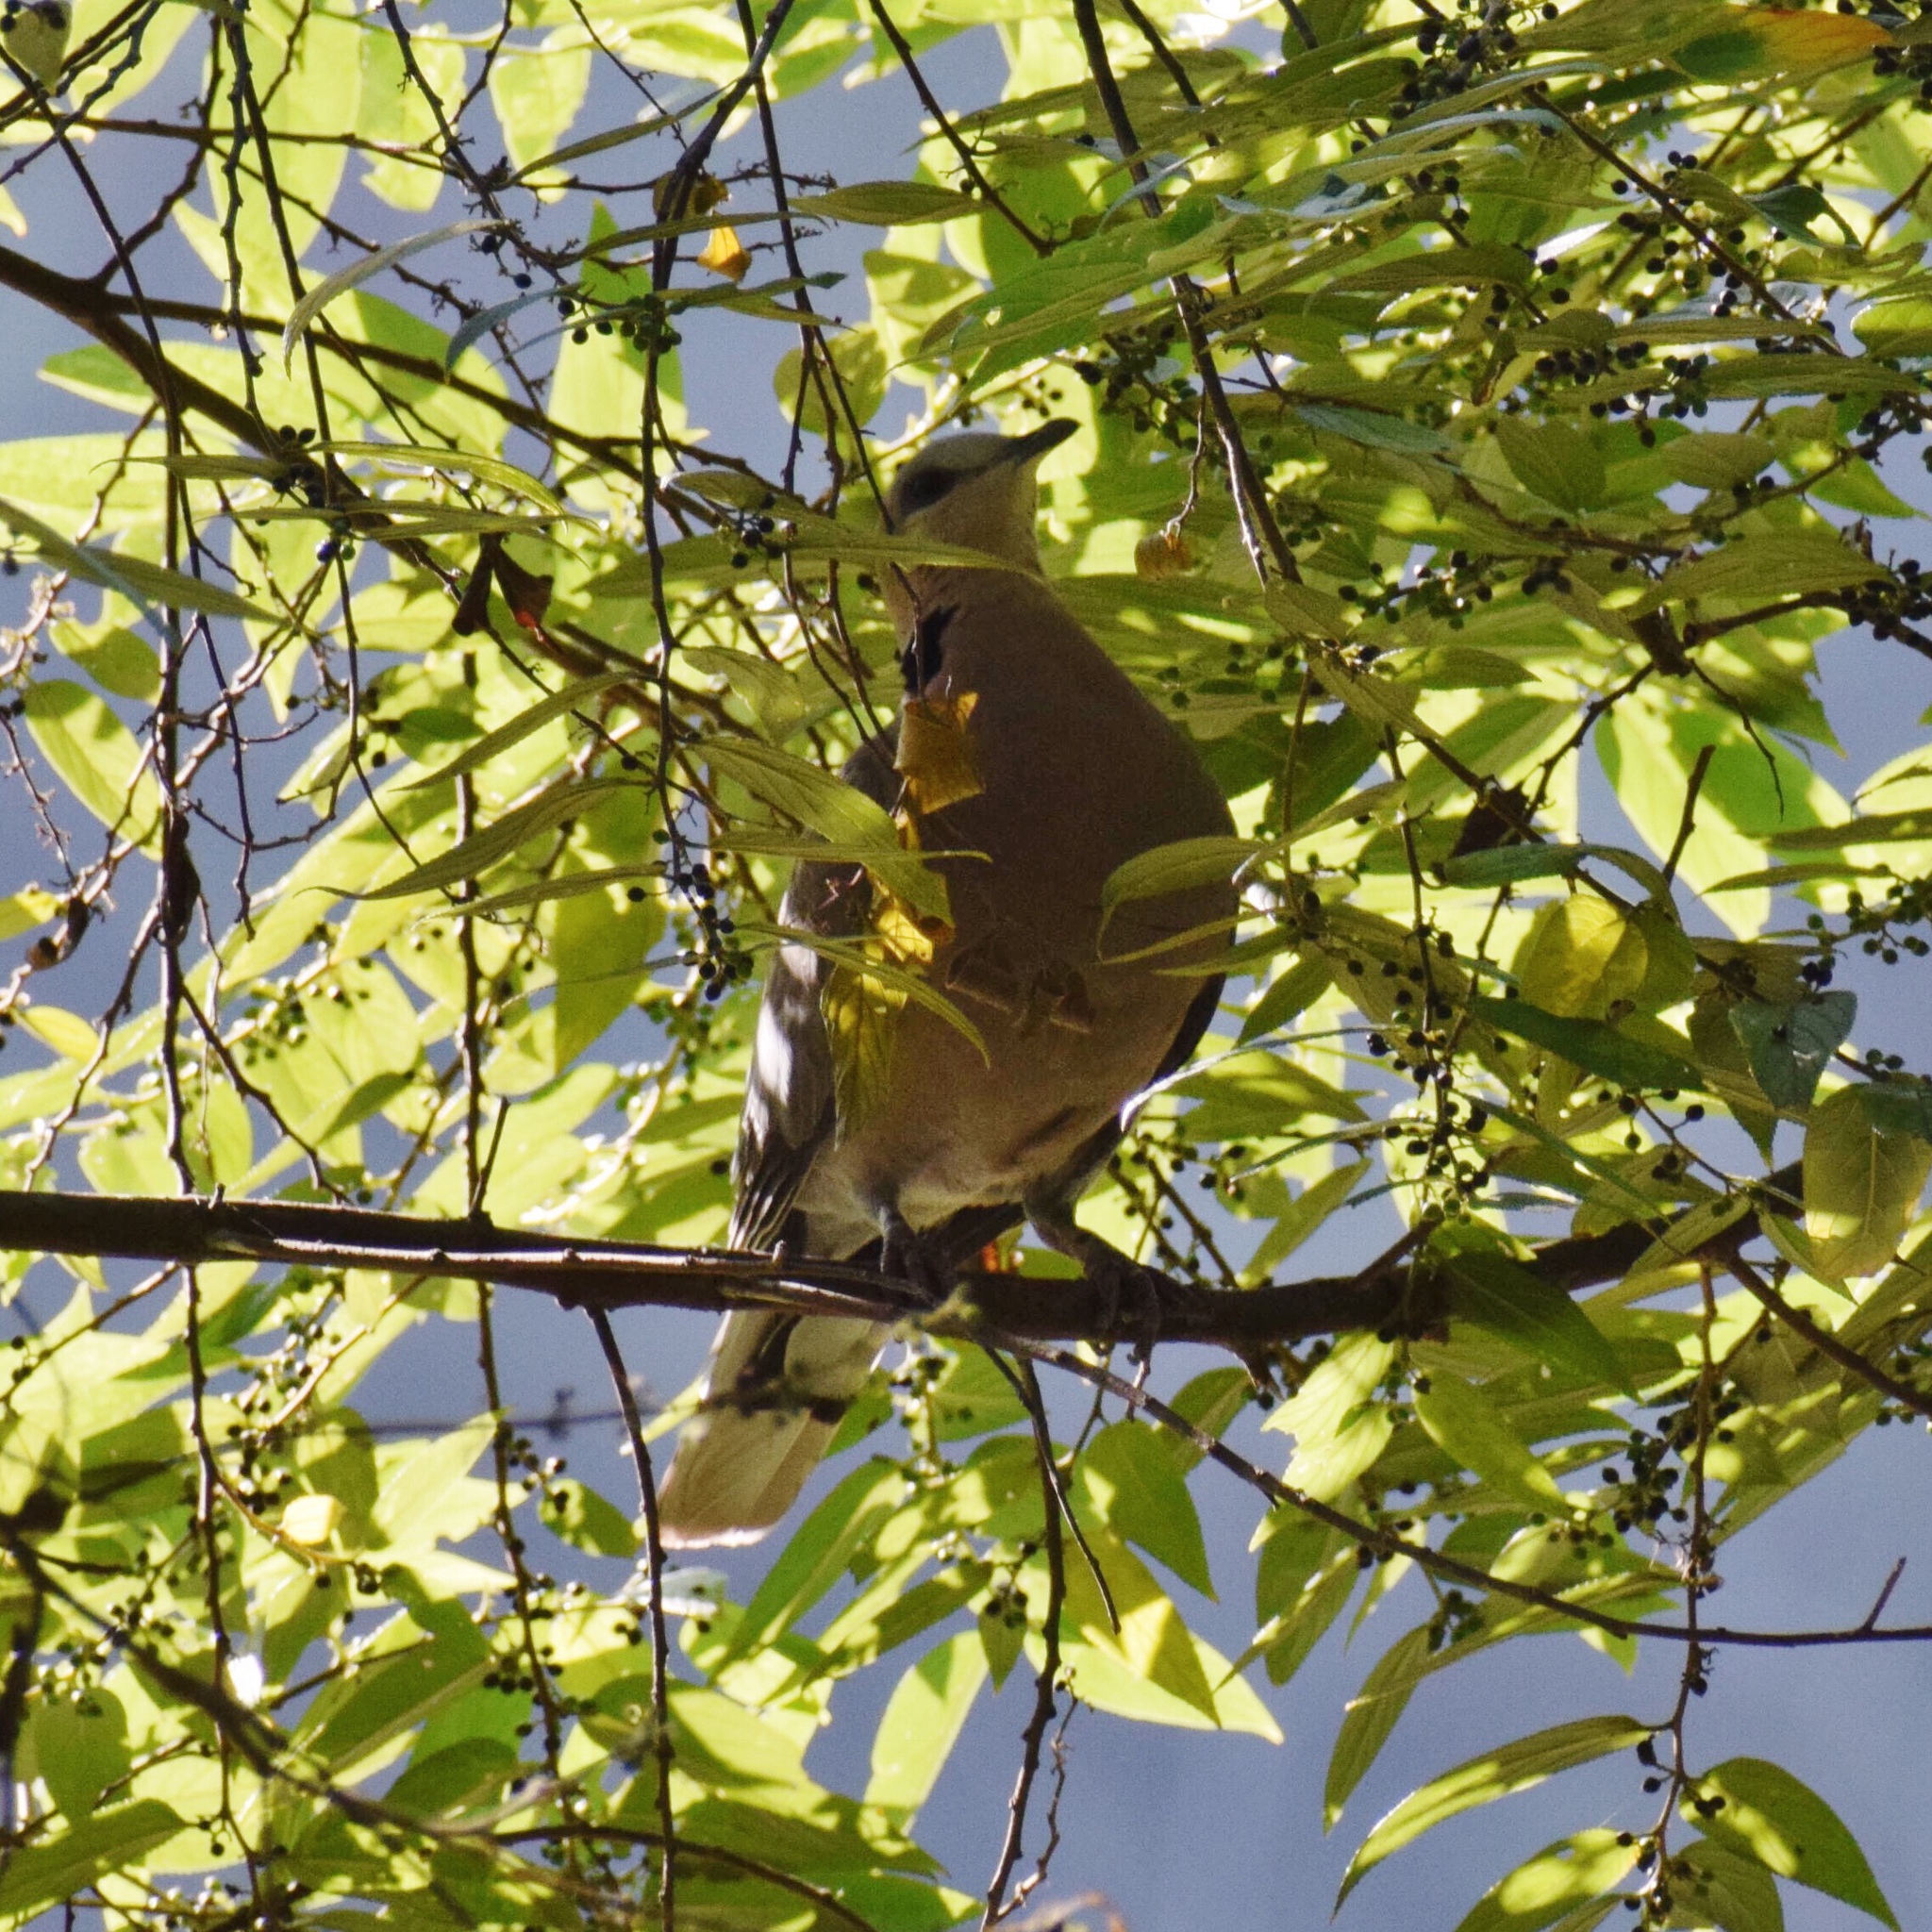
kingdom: Animalia
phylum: Chordata
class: Aves
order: Columbiformes
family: Columbidae
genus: Streptopelia
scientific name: Streptopelia semitorquata
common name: Red-eyed dove
